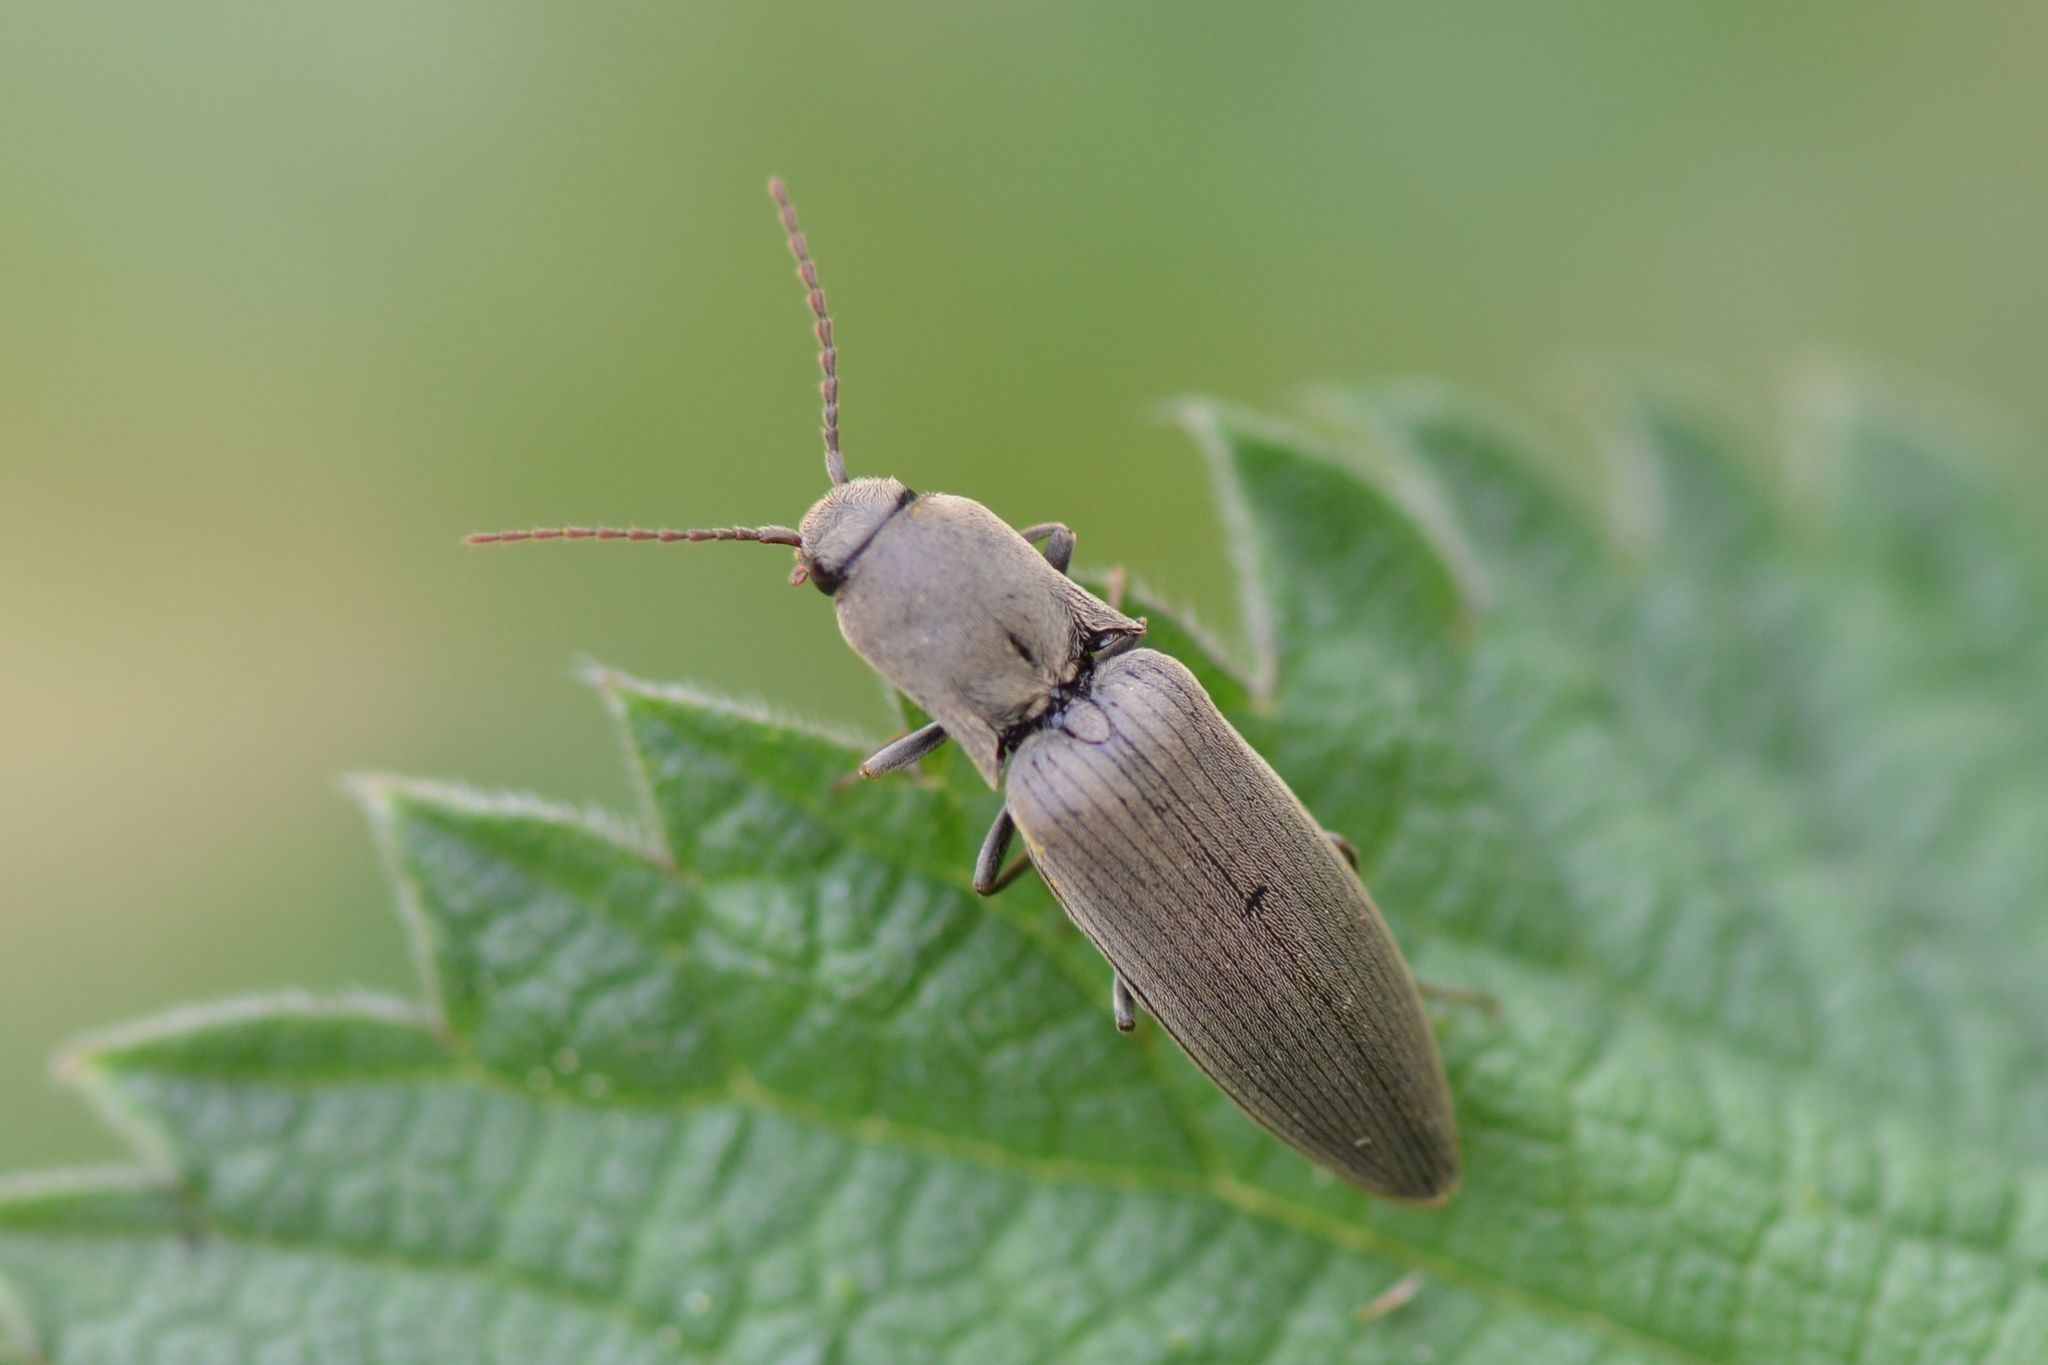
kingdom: Animalia
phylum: Arthropoda
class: Insecta
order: Coleoptera
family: Elateridae
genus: Agriotes
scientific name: Agriotes pilosellus
